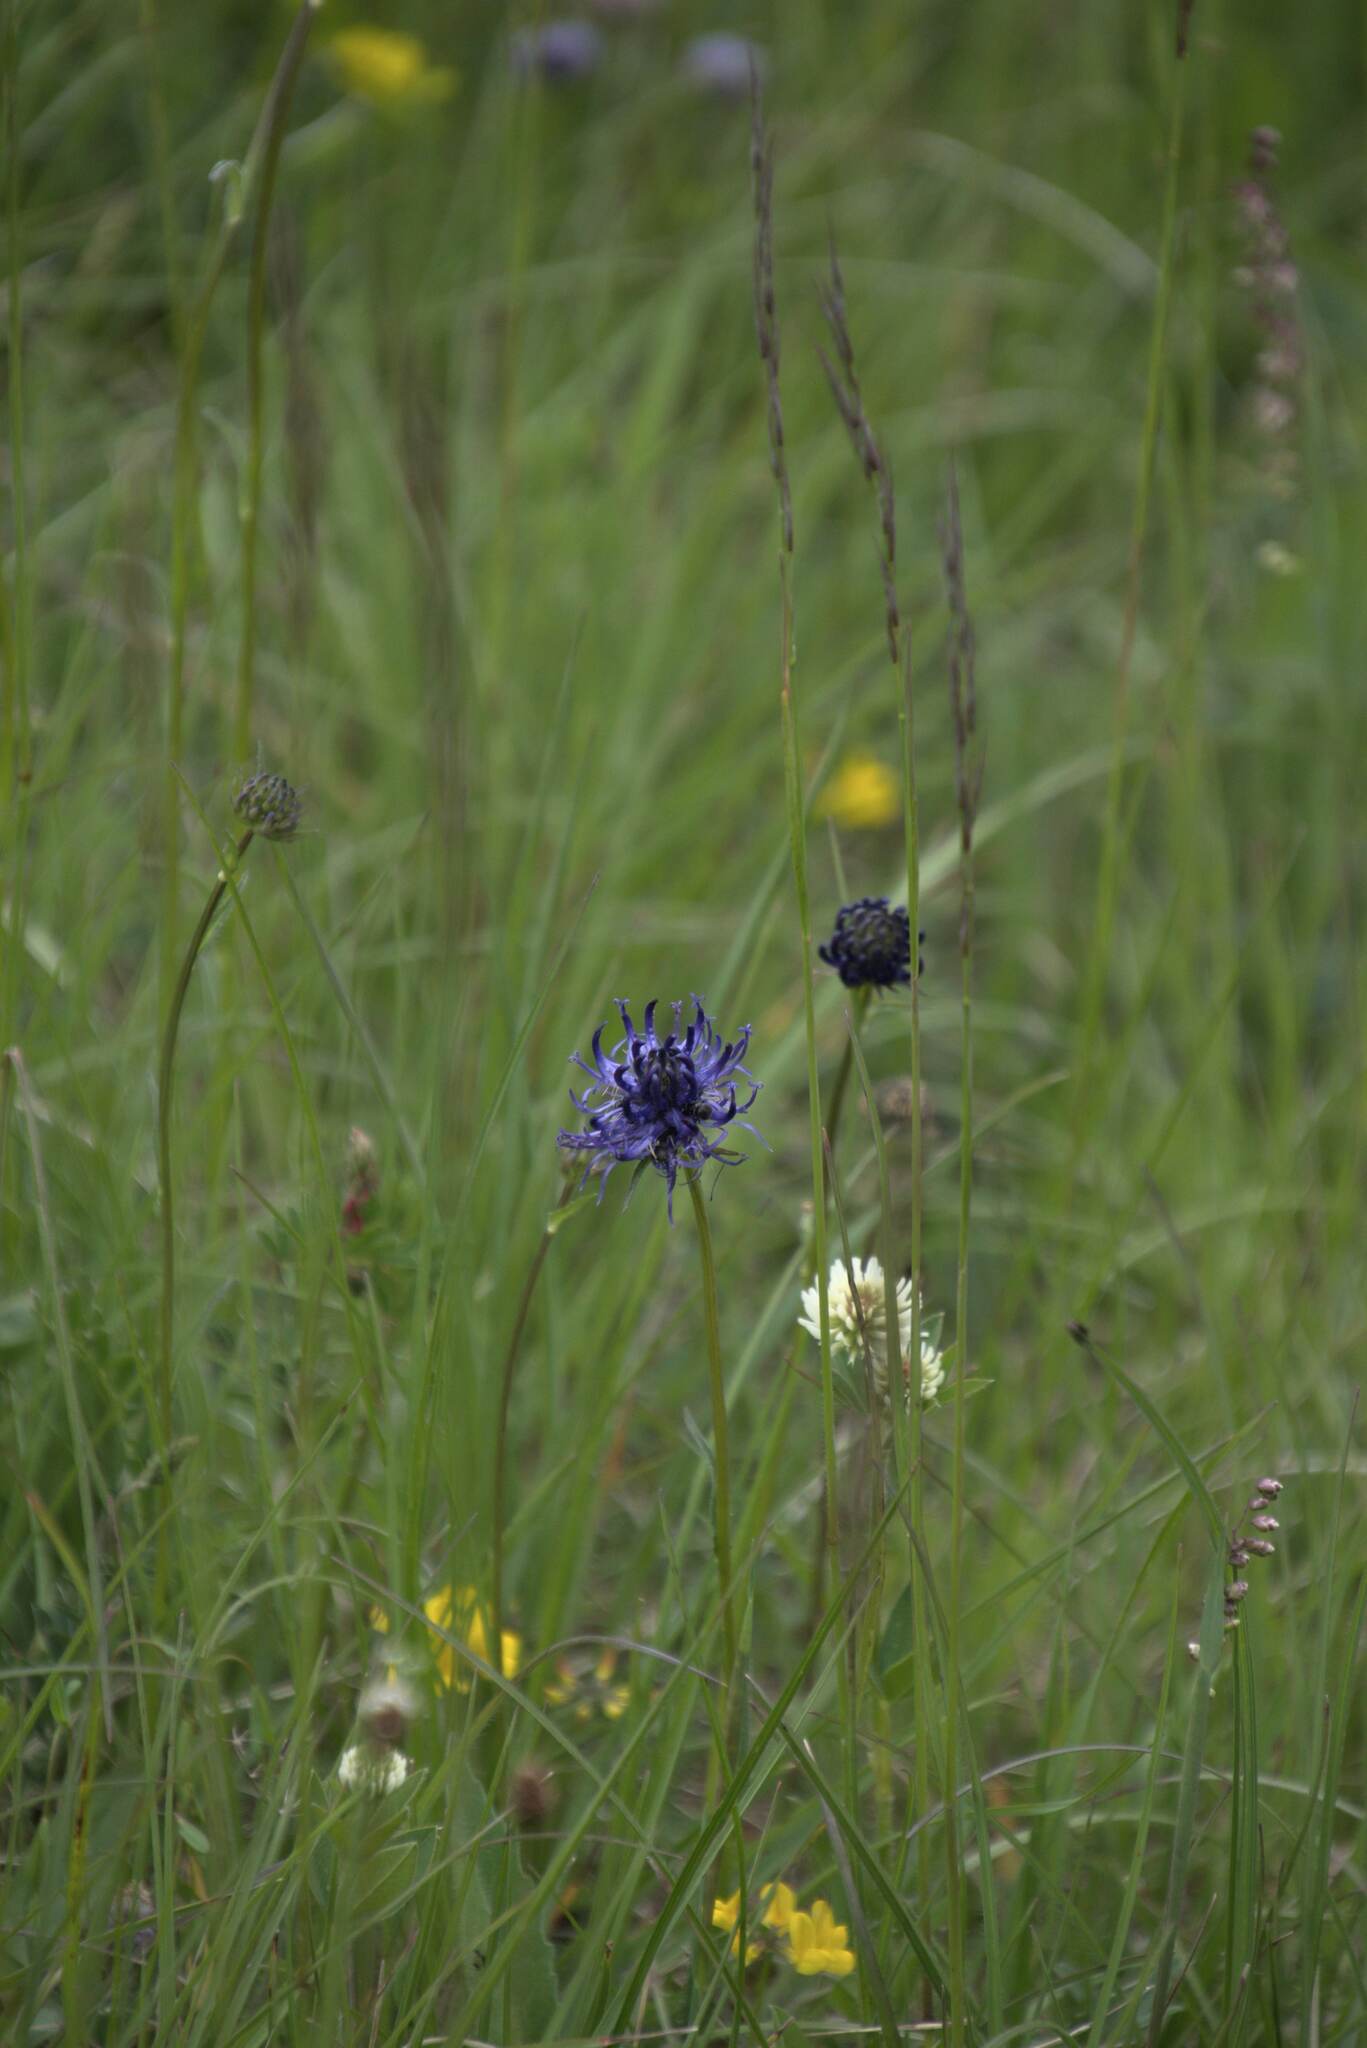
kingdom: Plantae
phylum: Tracheophyta
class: Magnoliopsida
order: Asterales
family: Campanulaceae
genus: Phyteuma
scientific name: Phyteuma orbiculare
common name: Round-headed rampion
